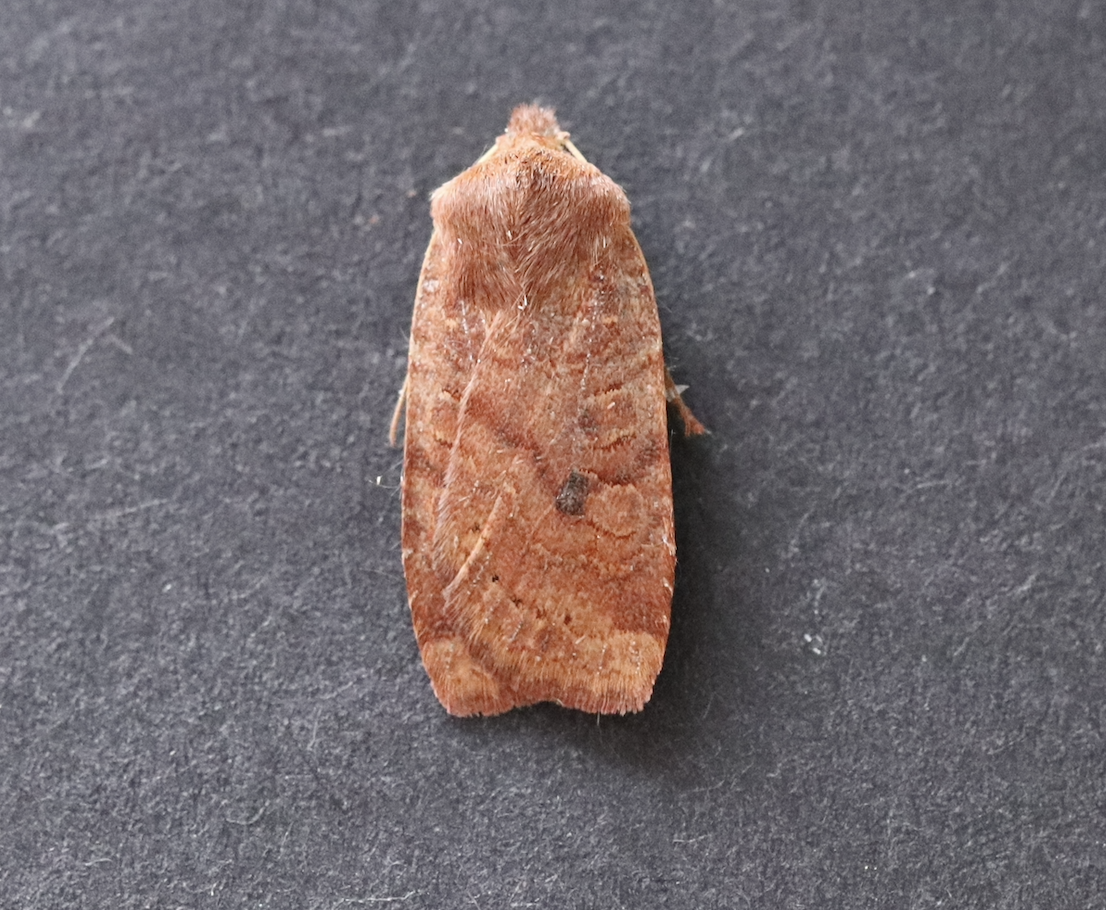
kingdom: Animalia
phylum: Arthropoda
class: Insecta
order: Lepidoptera
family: Noctuidae
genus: Conistra
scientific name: Conistra vaccinii
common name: Chestnut
